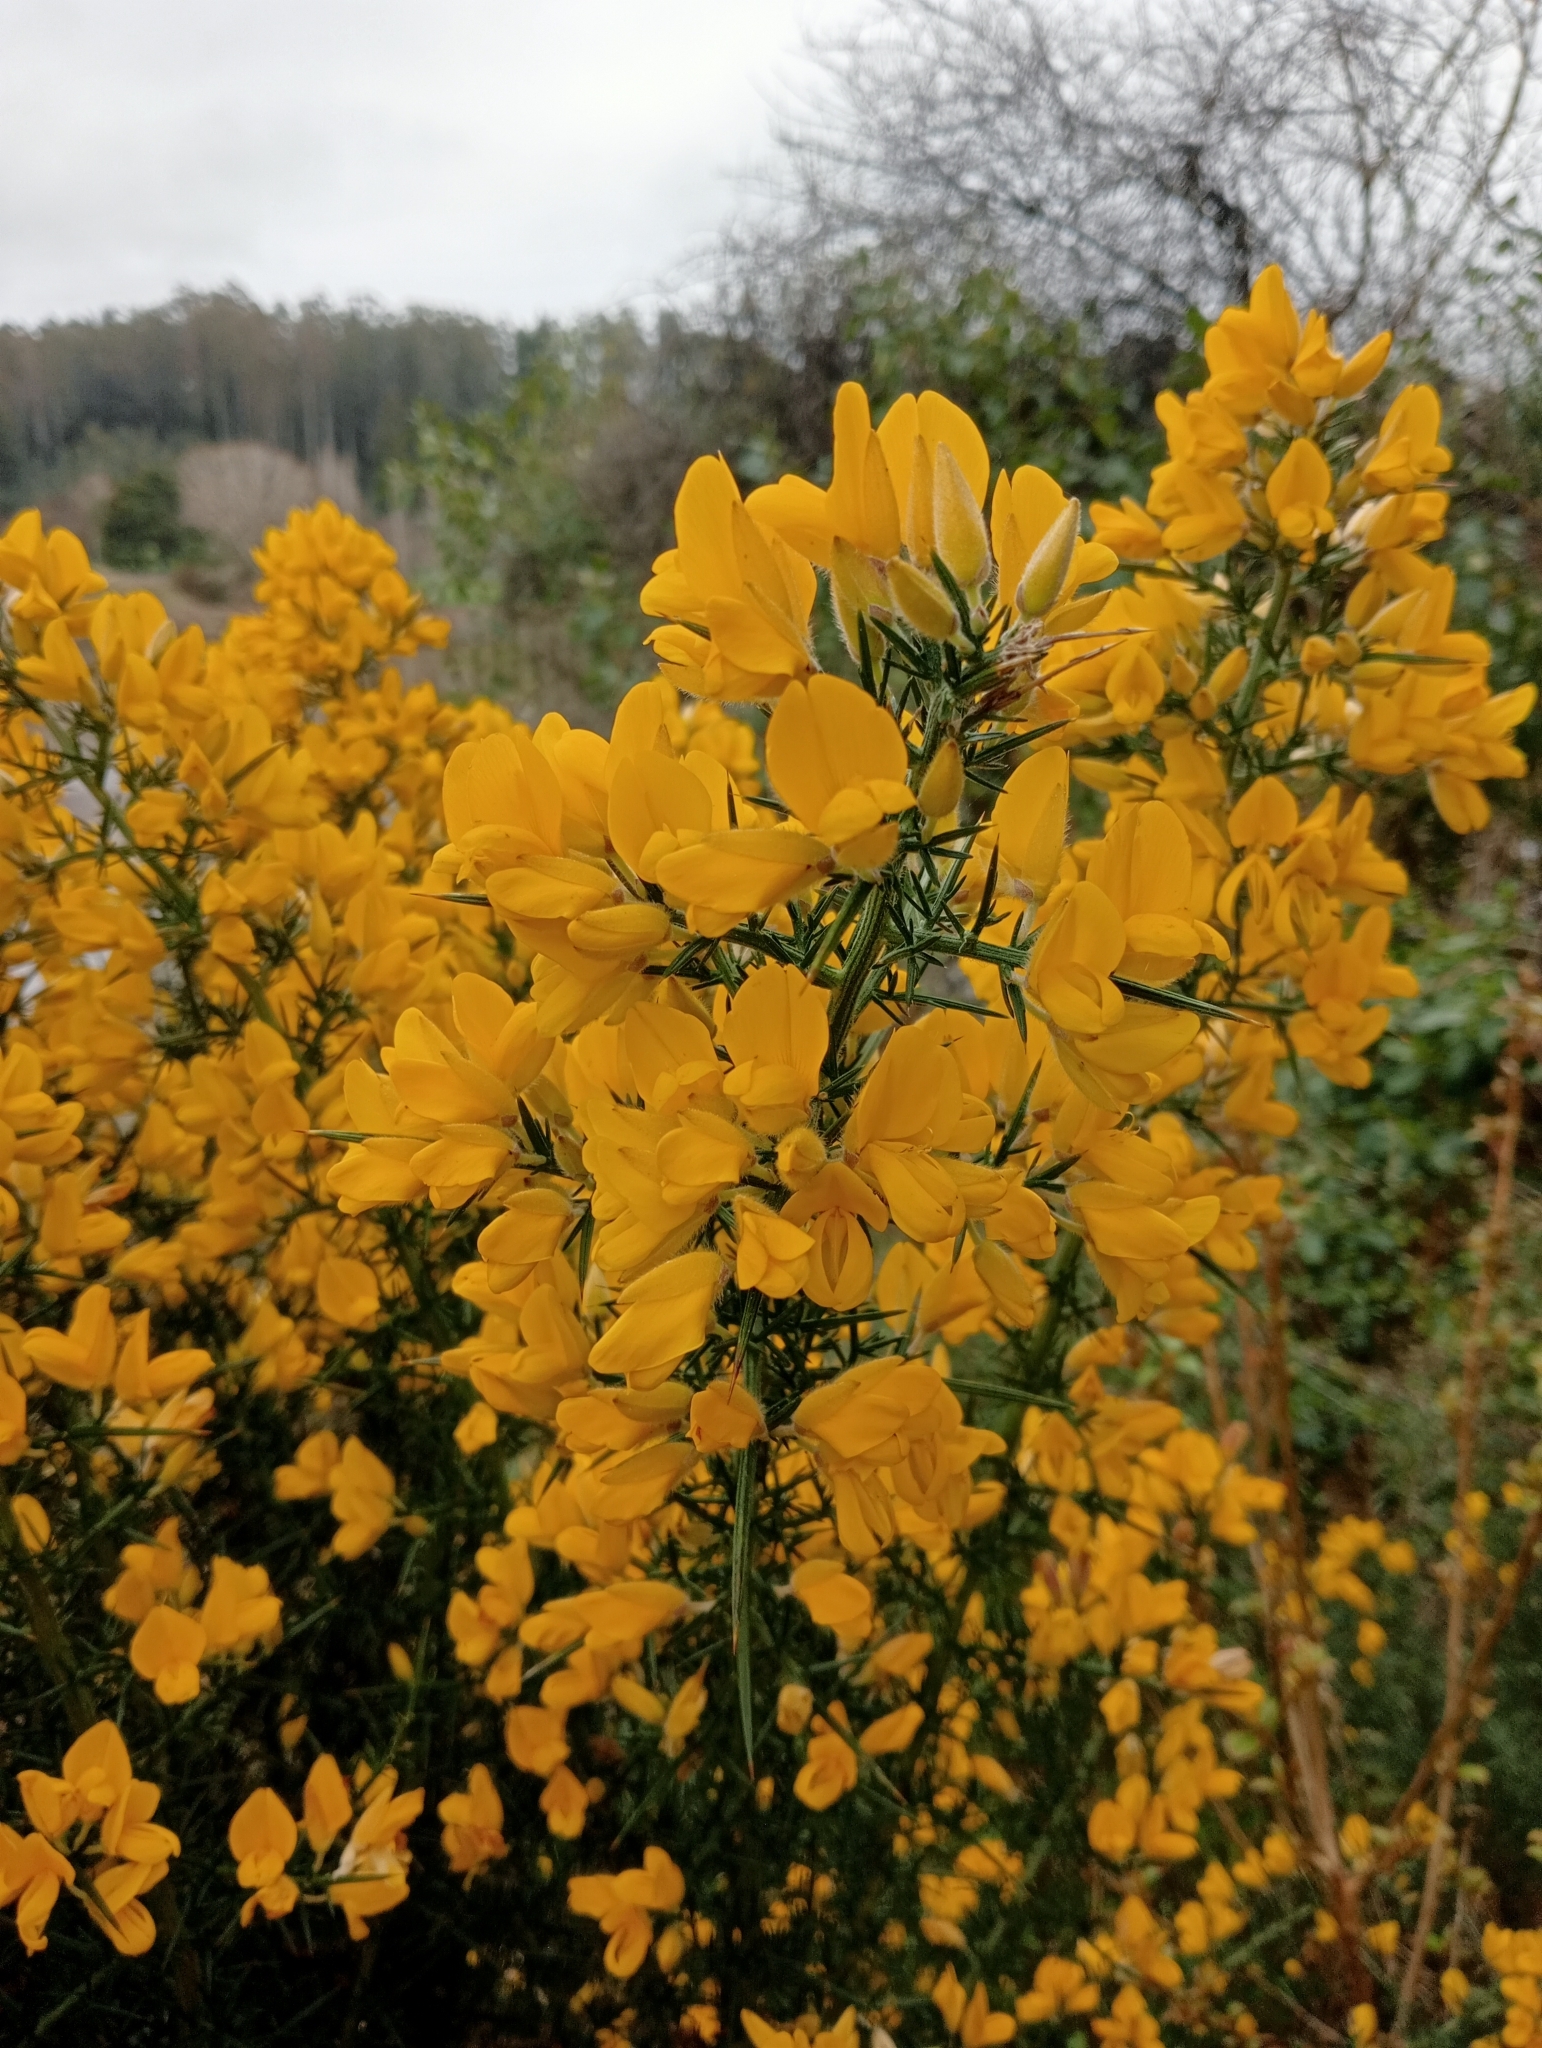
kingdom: Plantae
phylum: Tracheophyta
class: Magnoliopsida
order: Fabales
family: Fabaceae
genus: Ulex
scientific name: Ulex europaeus
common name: Common gorse
